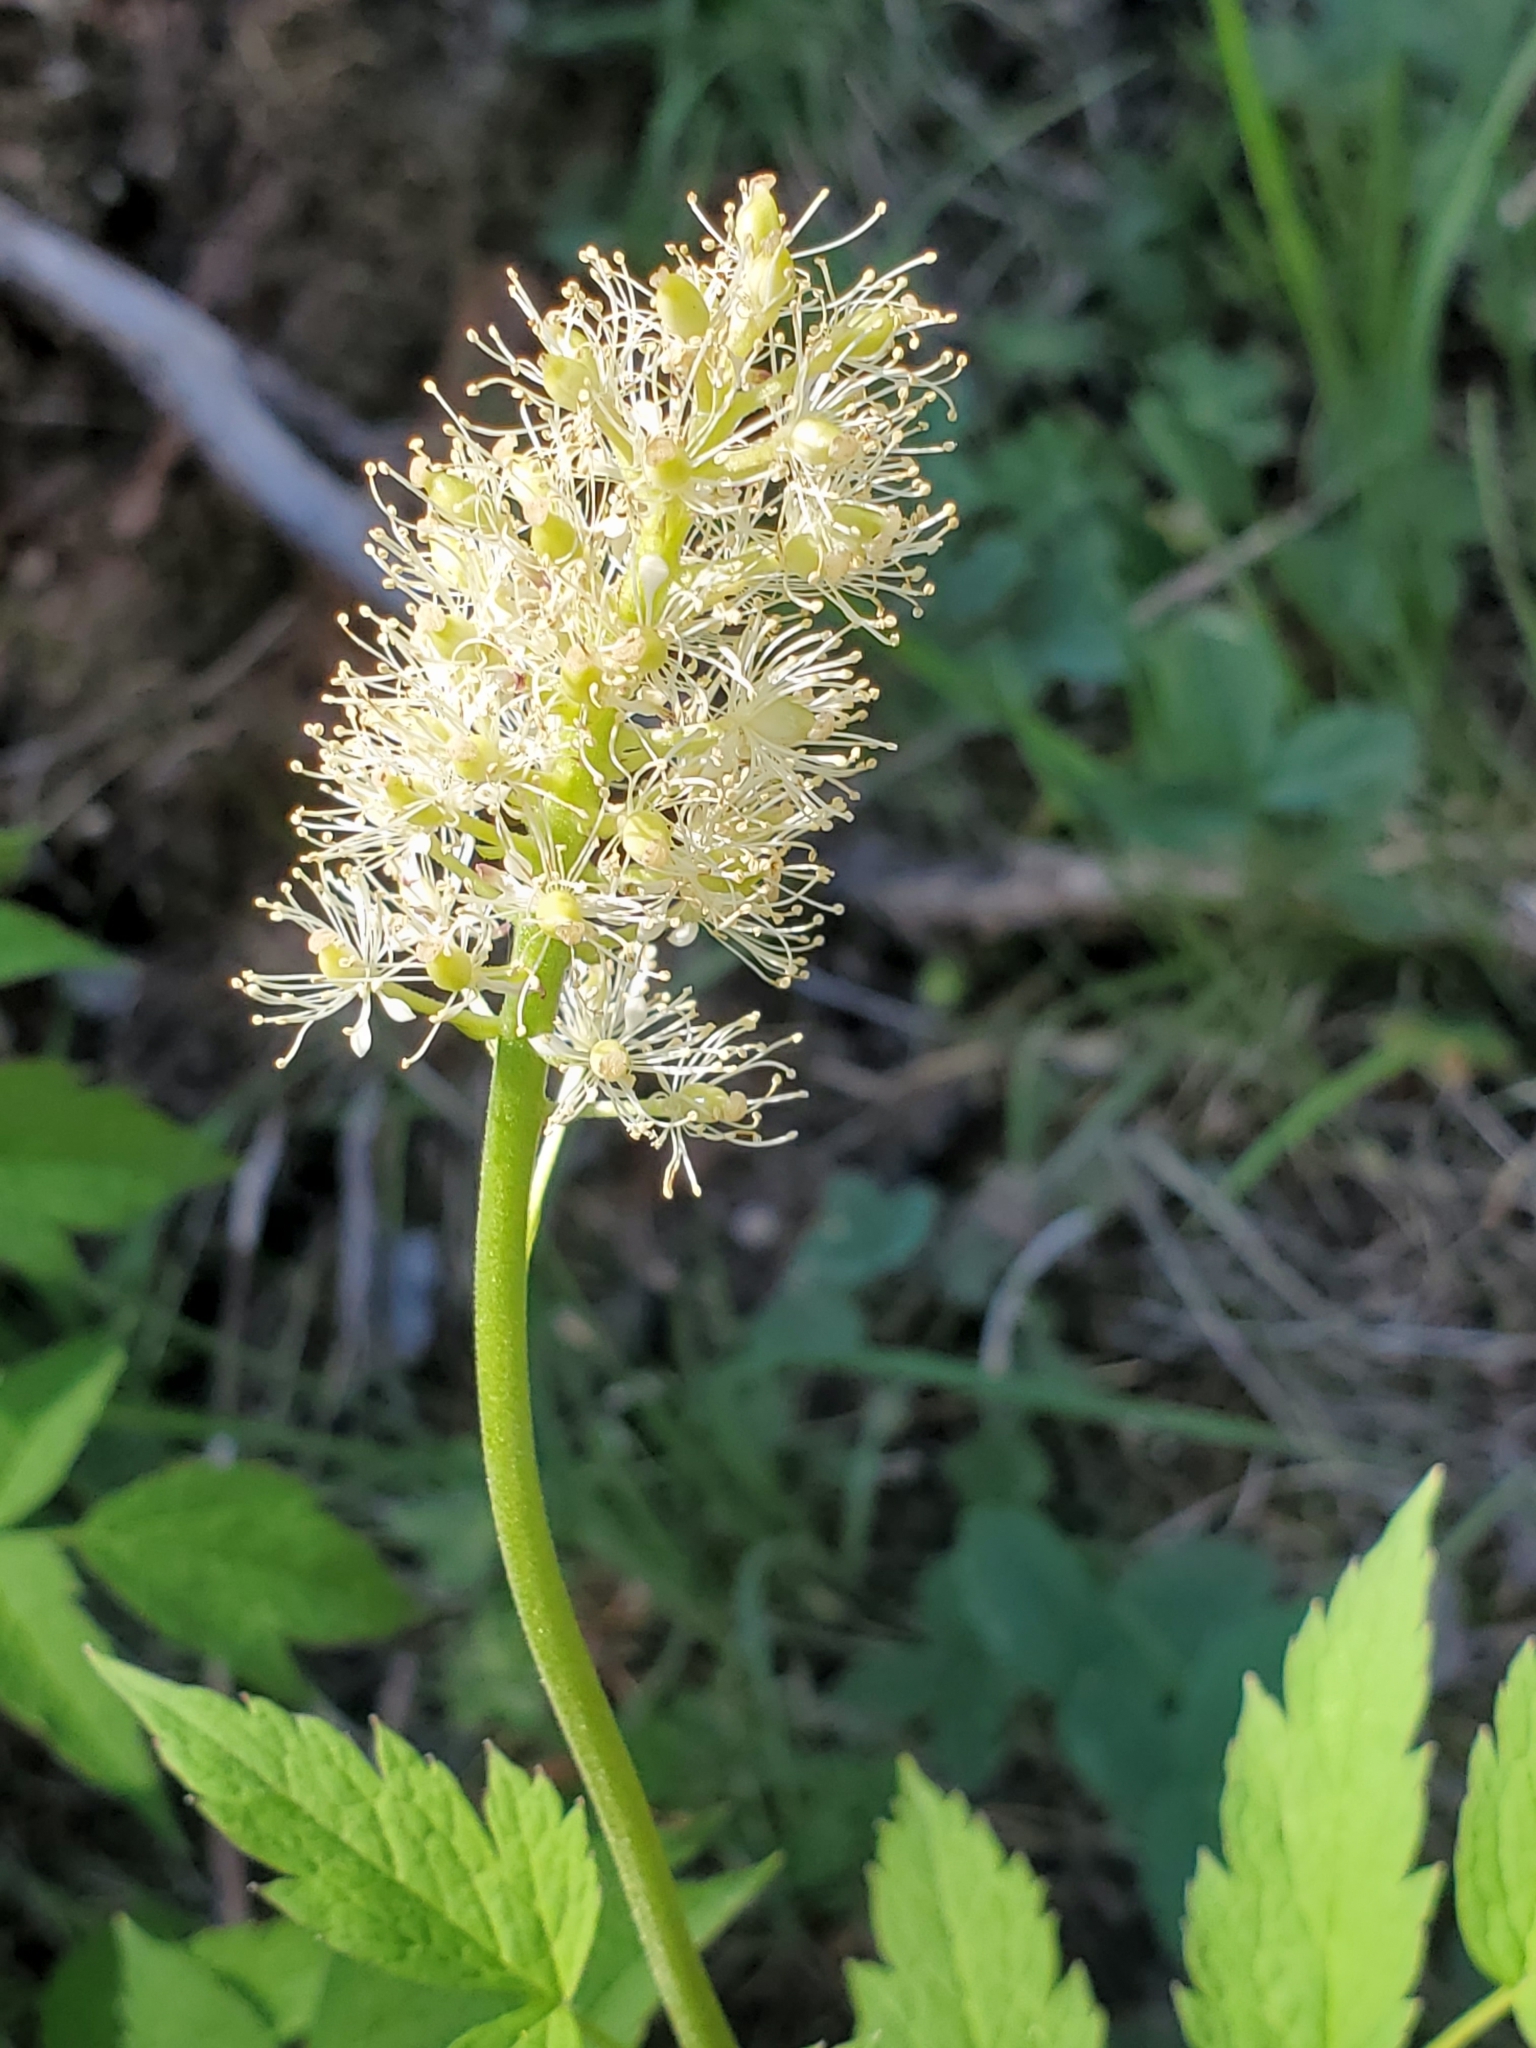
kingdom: Plantae
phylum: Tracheophyta
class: Magnoliopsida
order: Ranunculales
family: Ranunculaceae
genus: Actaea
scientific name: Actaea rubra
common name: Red baneberry
